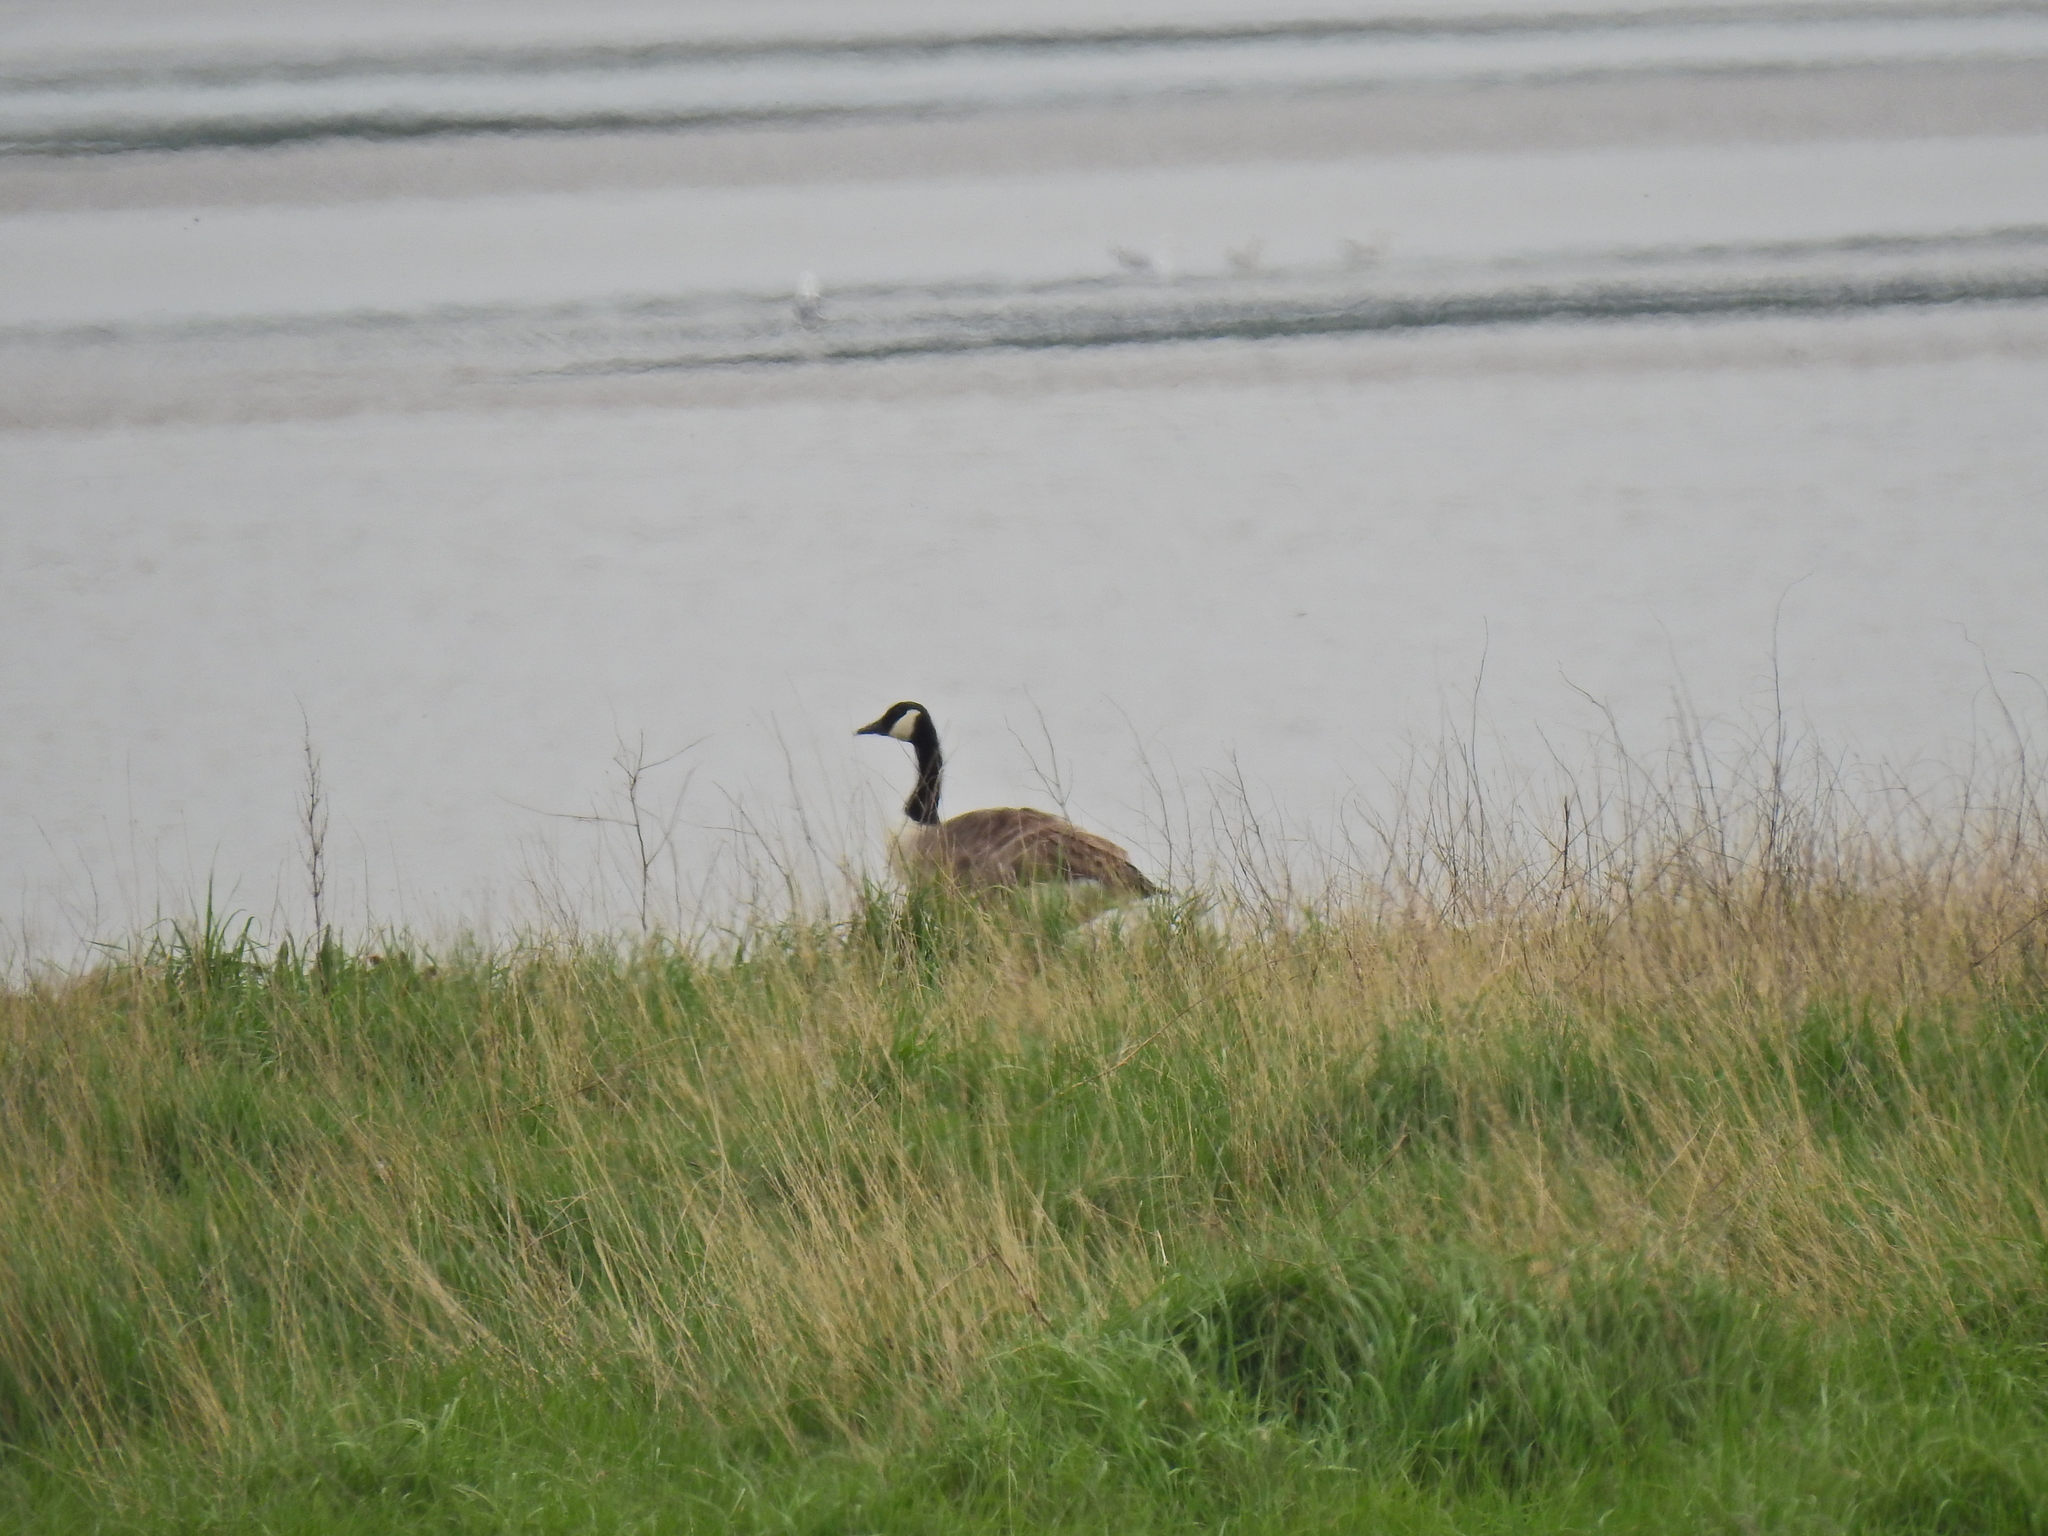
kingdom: Animalia
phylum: Chordata
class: Aves
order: Anseriformes
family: Anatidae
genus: Branta
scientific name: Branta canadensis
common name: Canada goose
